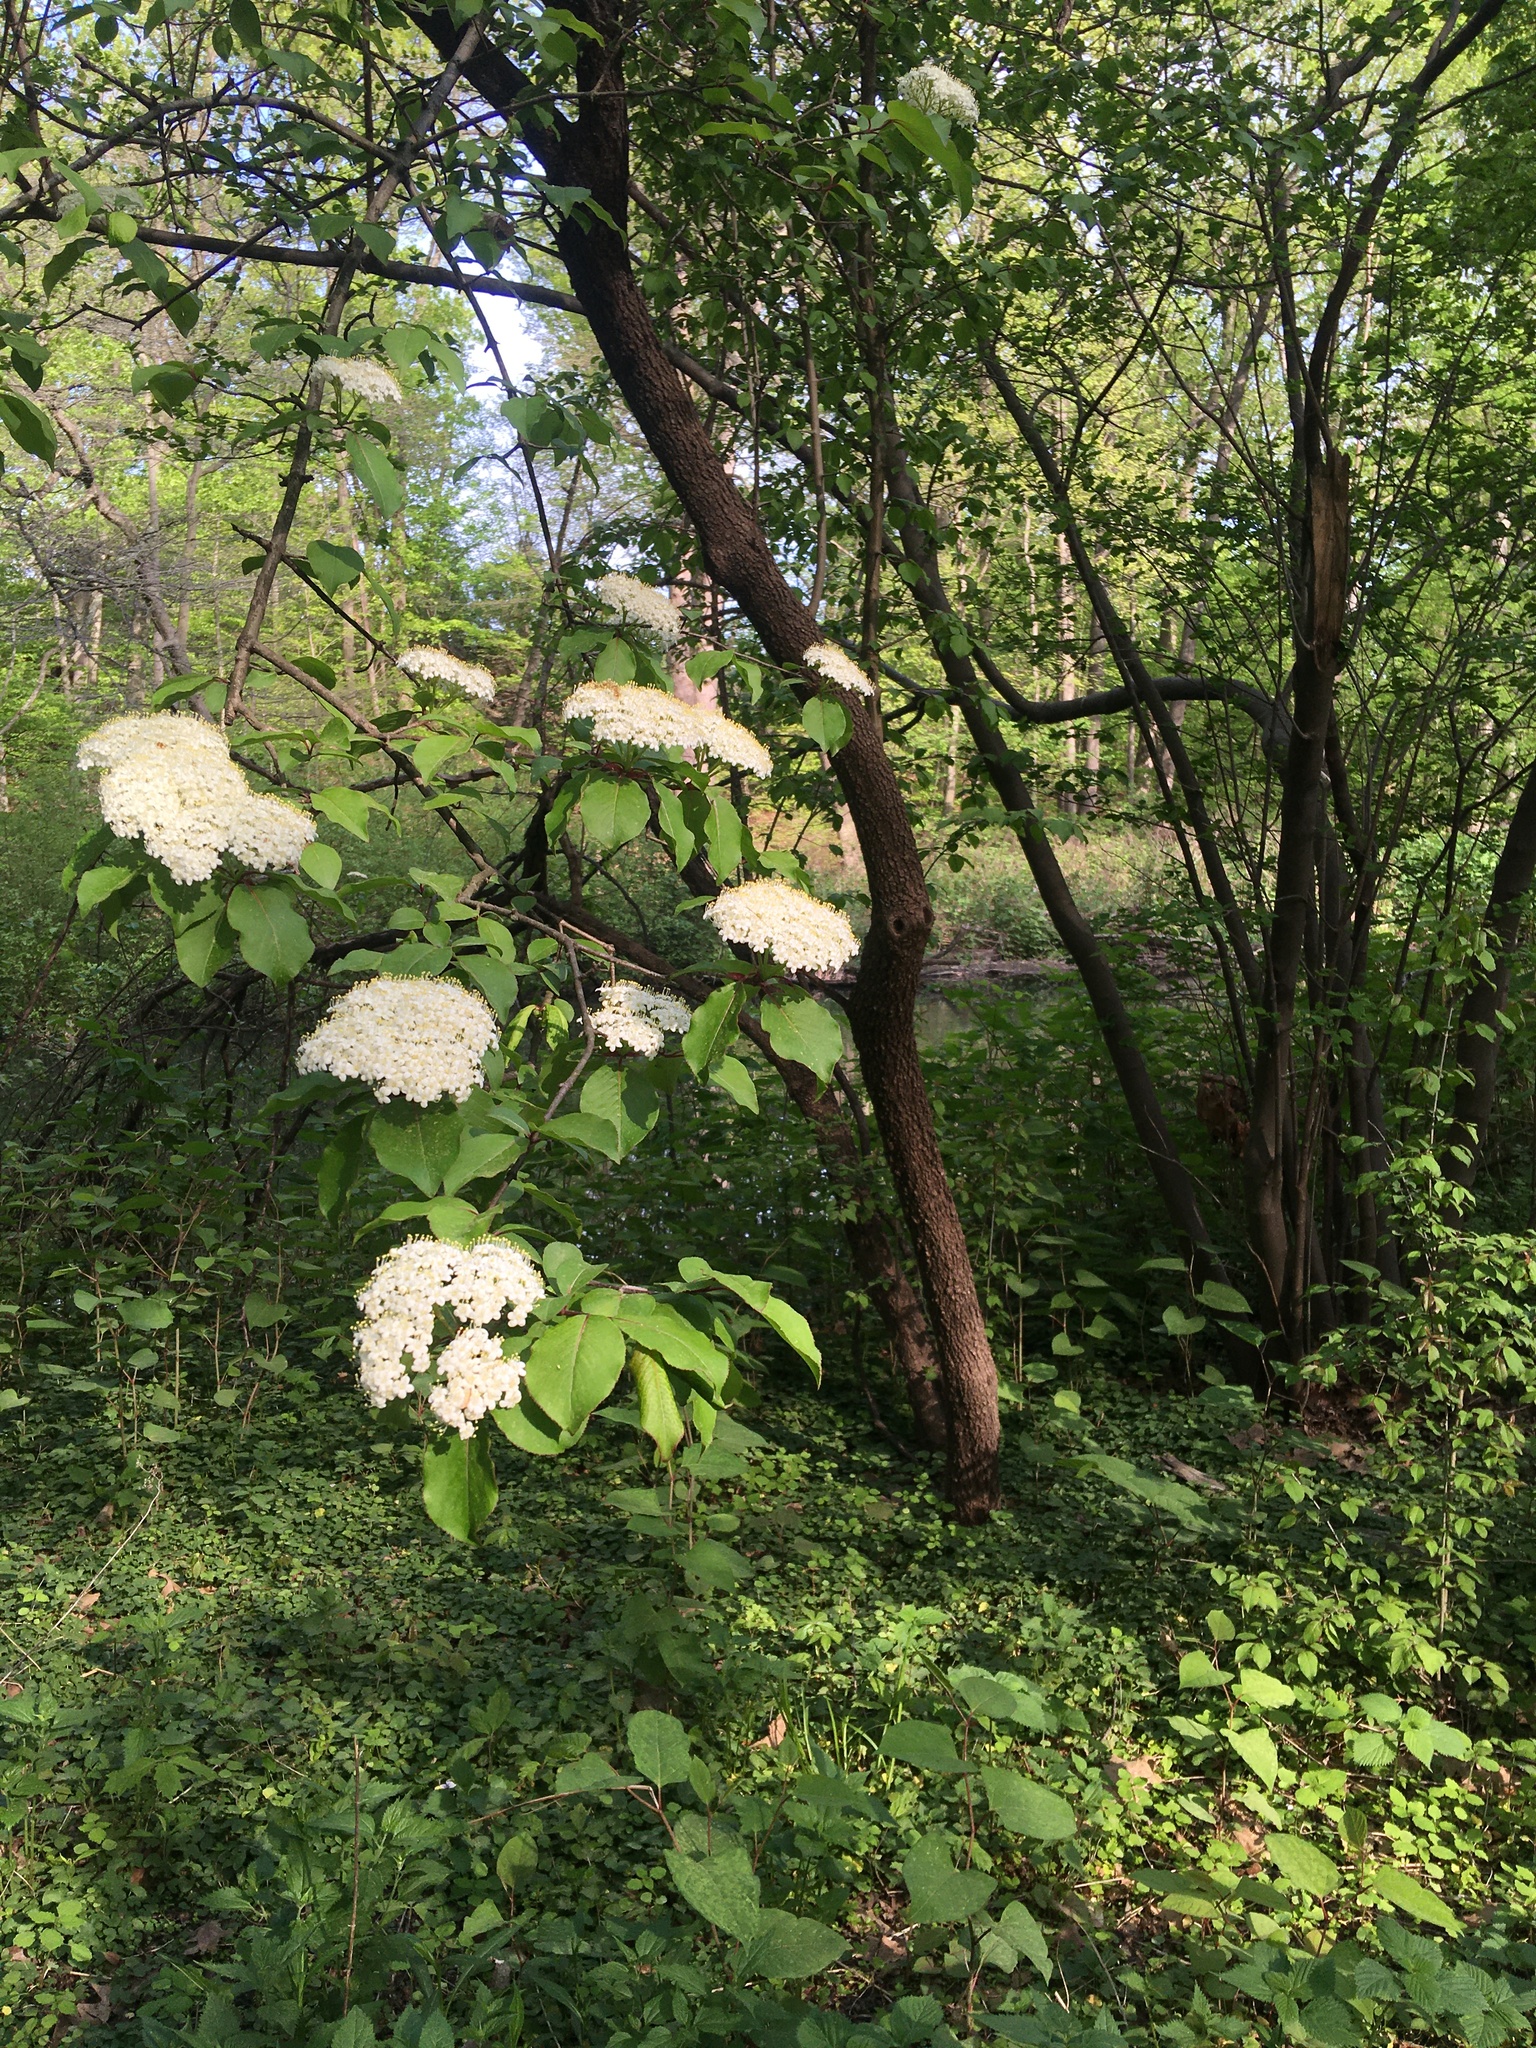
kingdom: Plantae
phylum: Tracheophyta
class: Magnoliopsida
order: Dipsacales
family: Viburnaceae
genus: Viburnum
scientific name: Viburnum prunifolium
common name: Black haw
